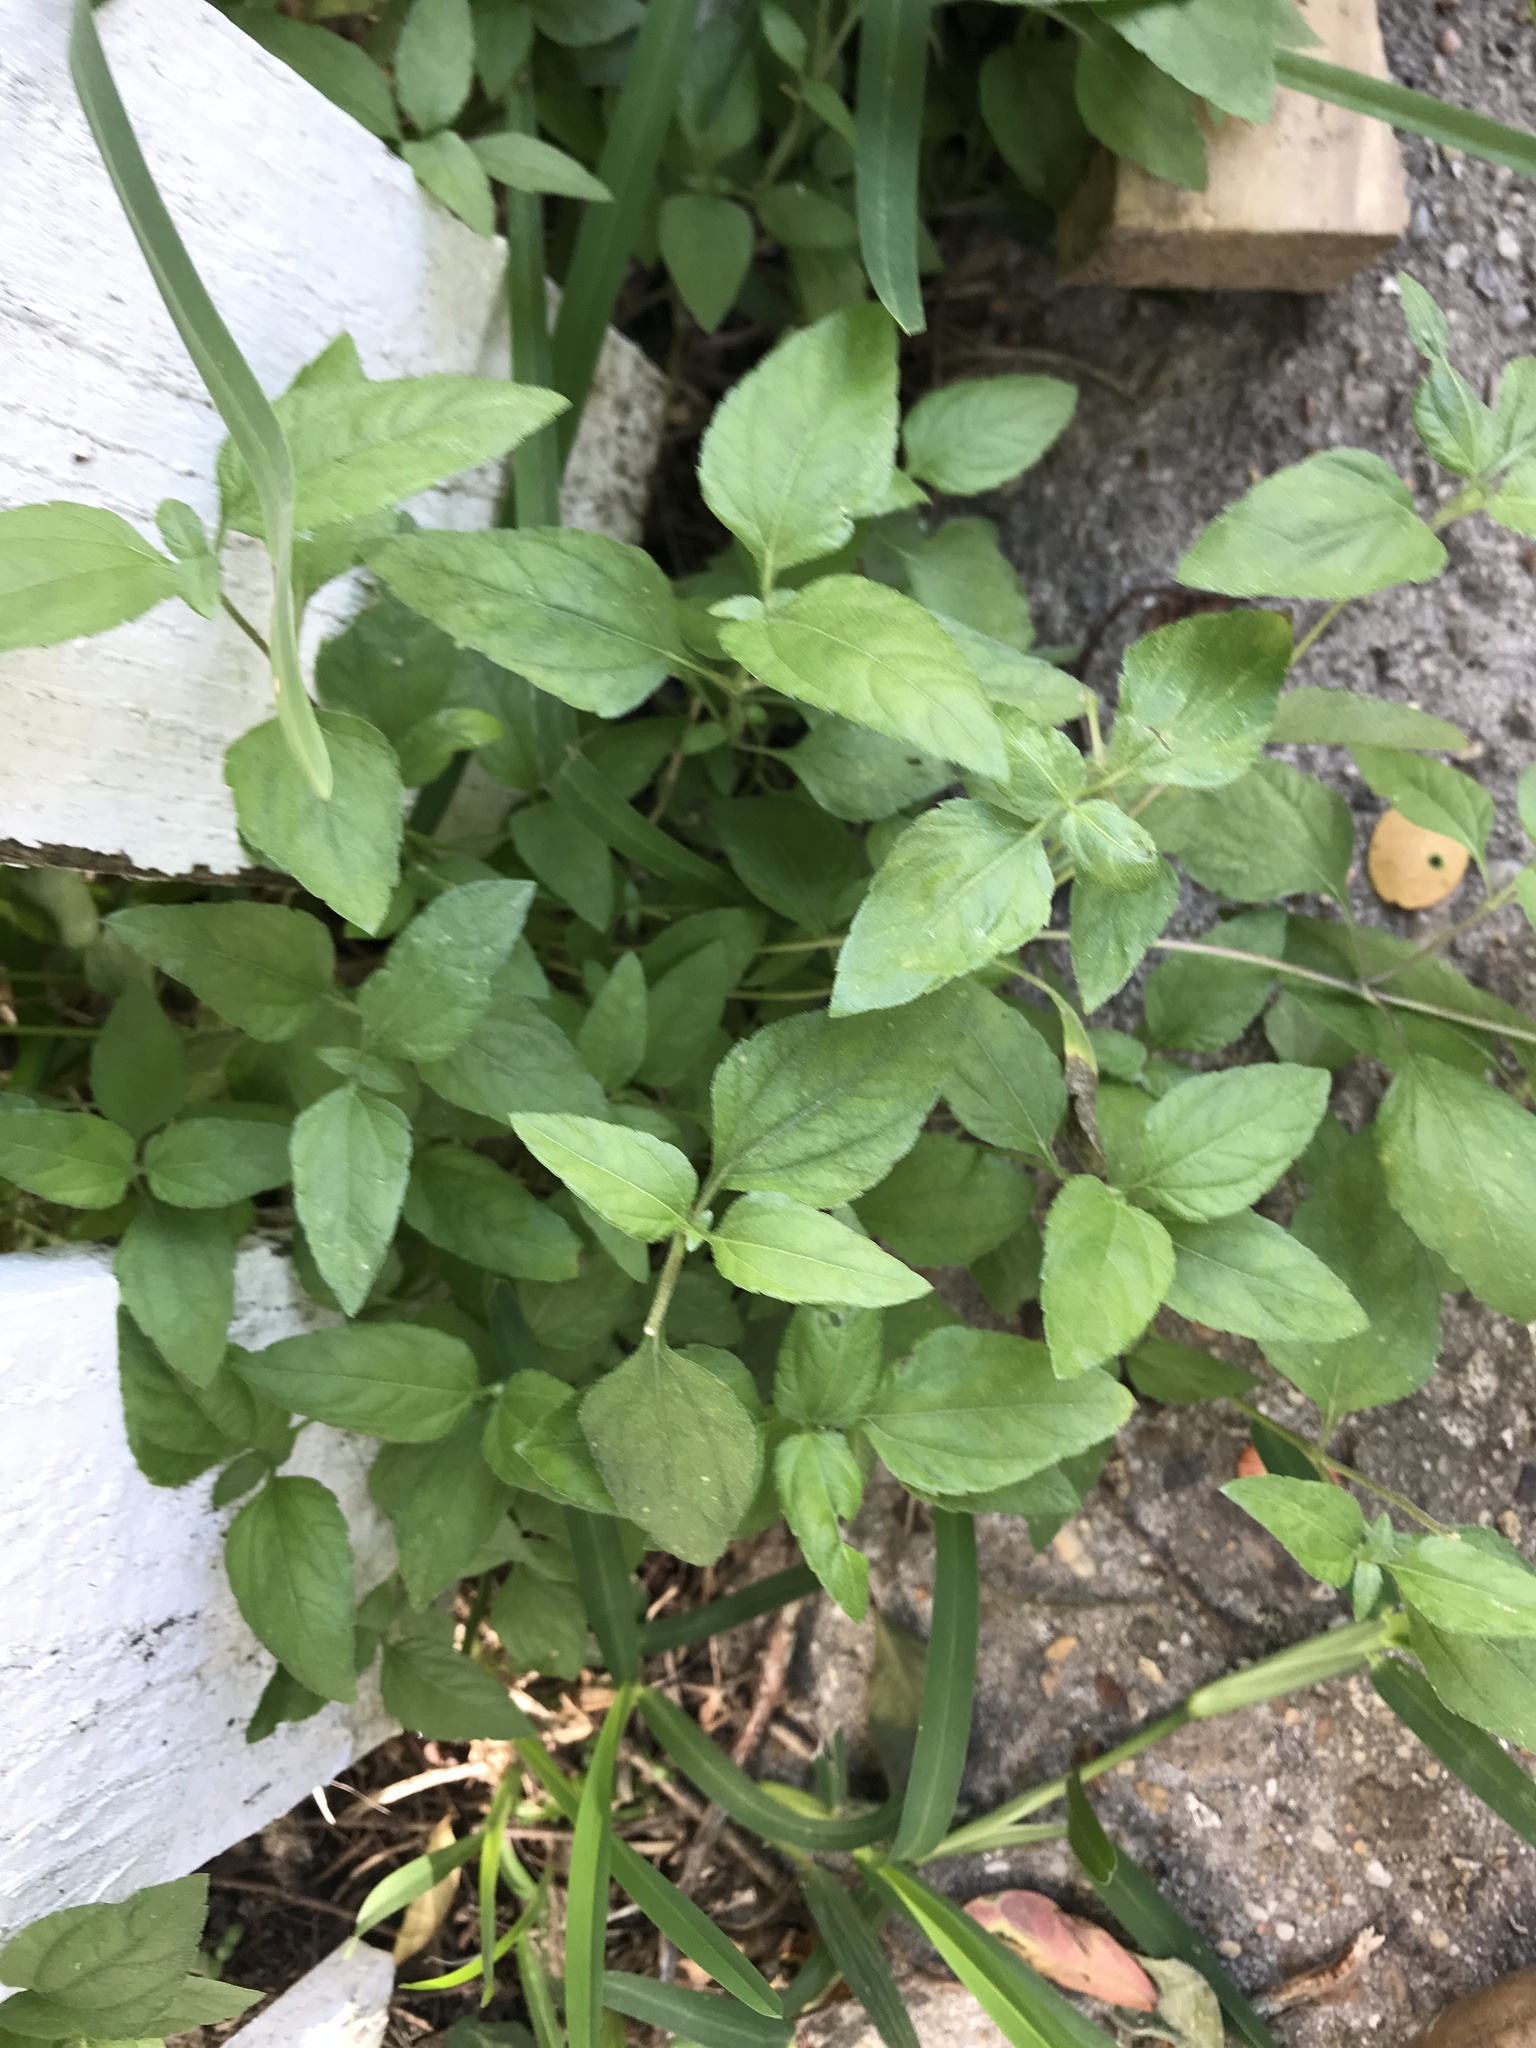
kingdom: Plantae
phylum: Tracheophyta
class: Magnoliopsida
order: Asterales
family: Asteraceae
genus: Calyptocarpus
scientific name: Calyptocarpus vialis
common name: Straggler daisy
